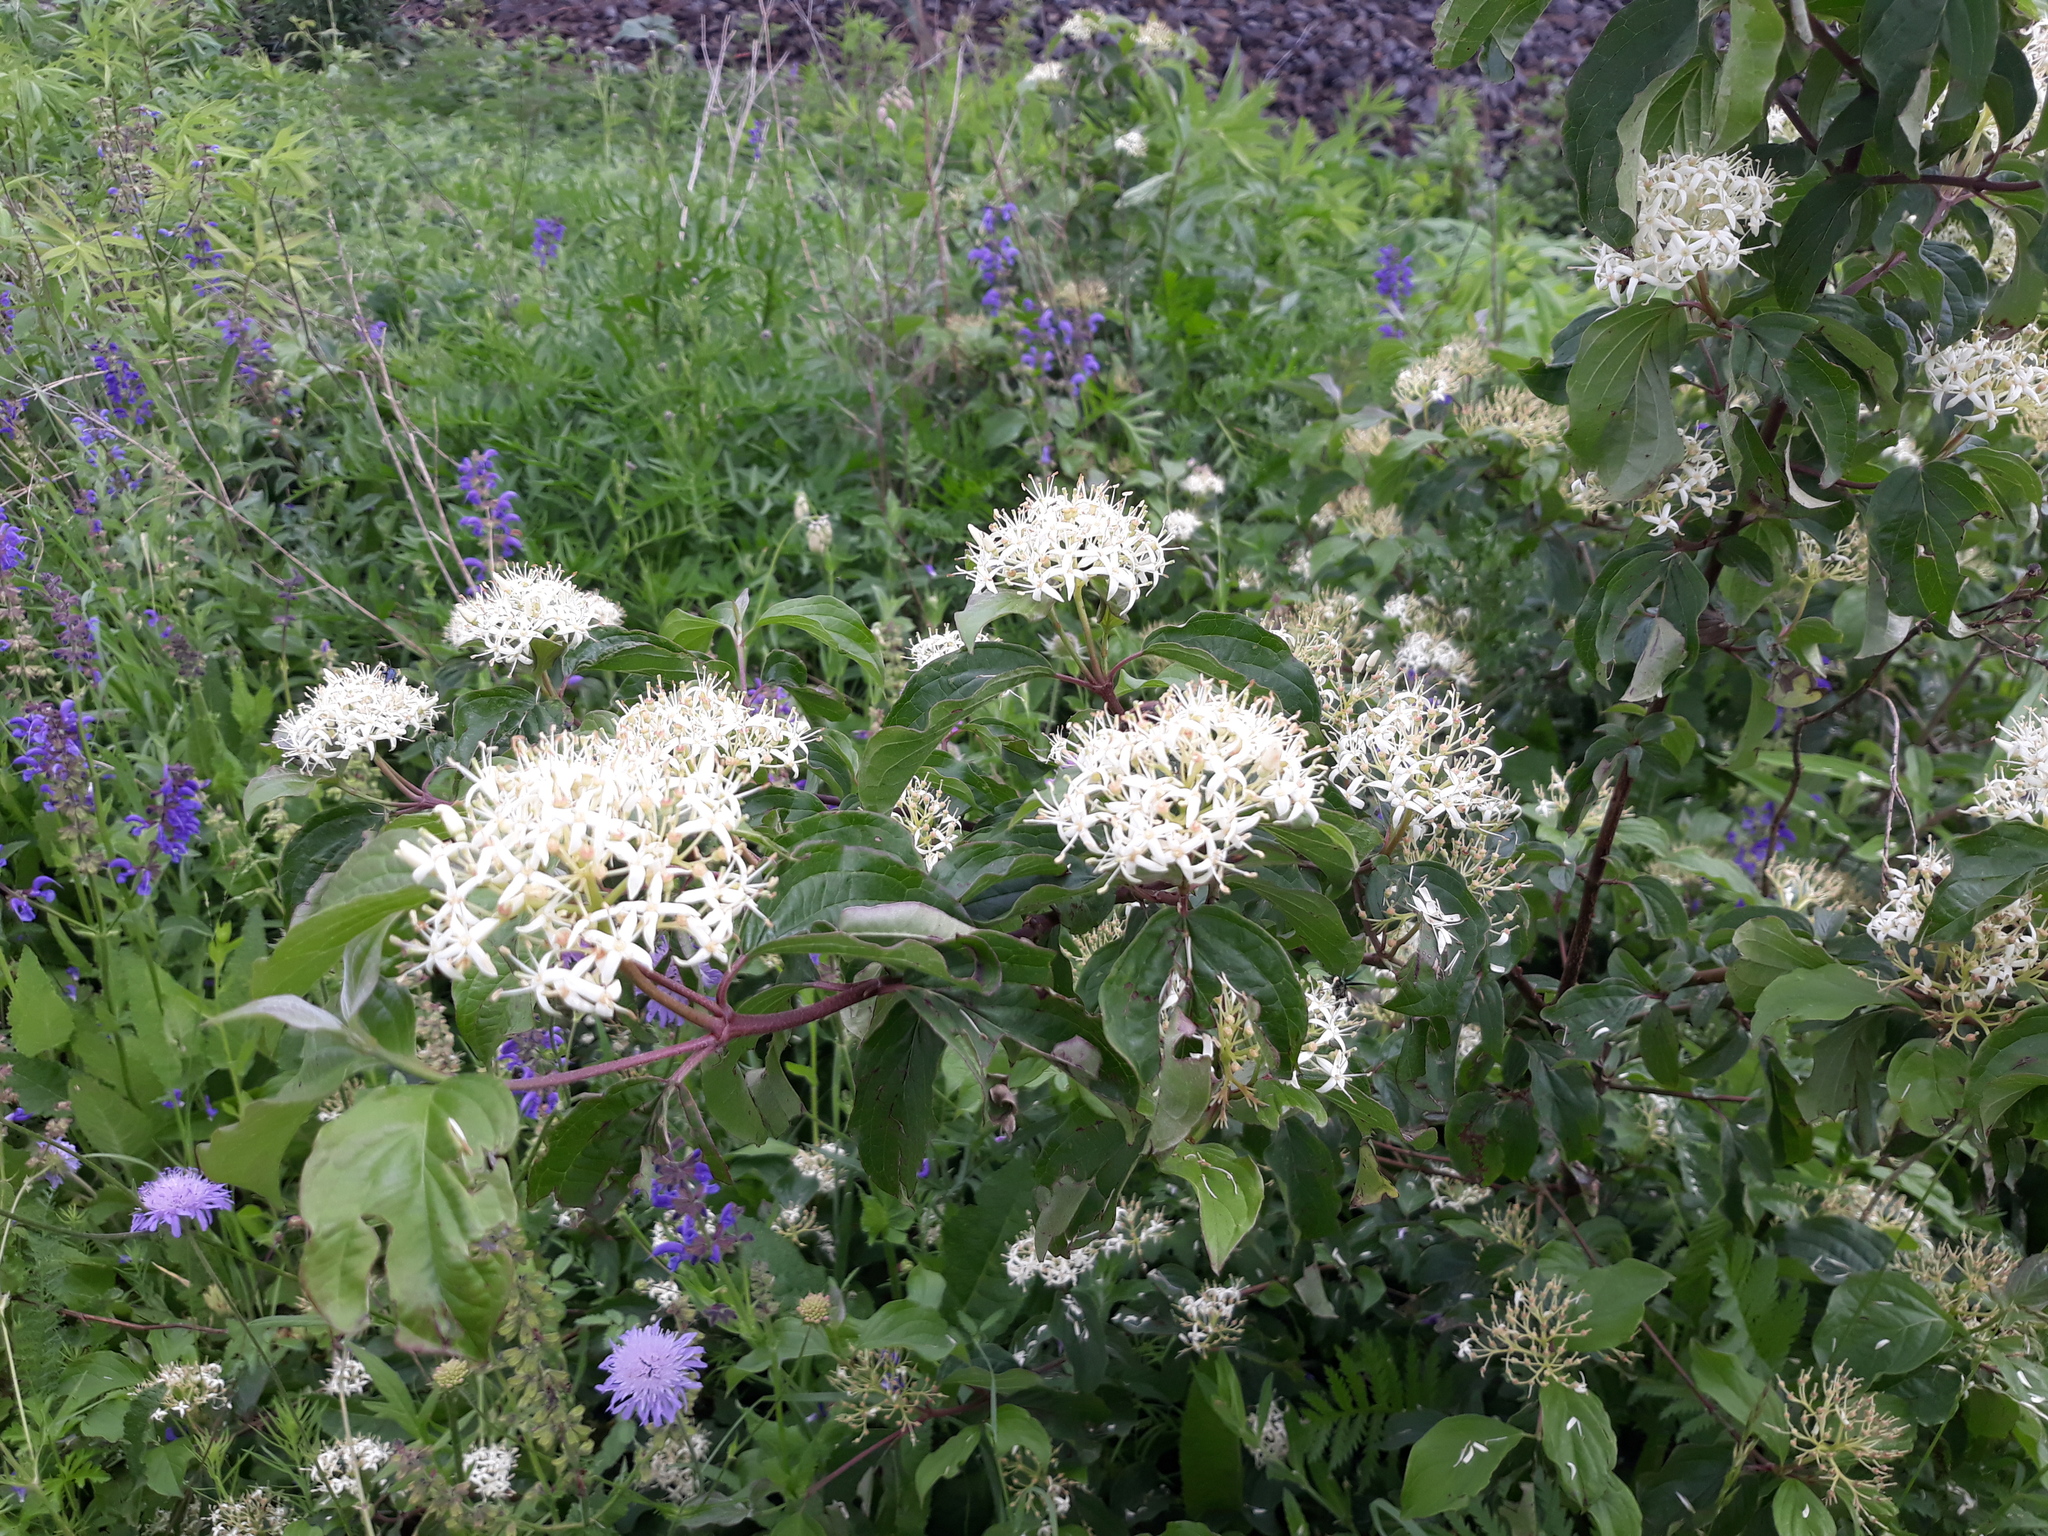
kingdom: Plantae
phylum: Tracheophyta
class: Magnoliopsida
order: Cornales
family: Cornaceae
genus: Cornus
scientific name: Cornus sanguinea
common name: Dogwood
